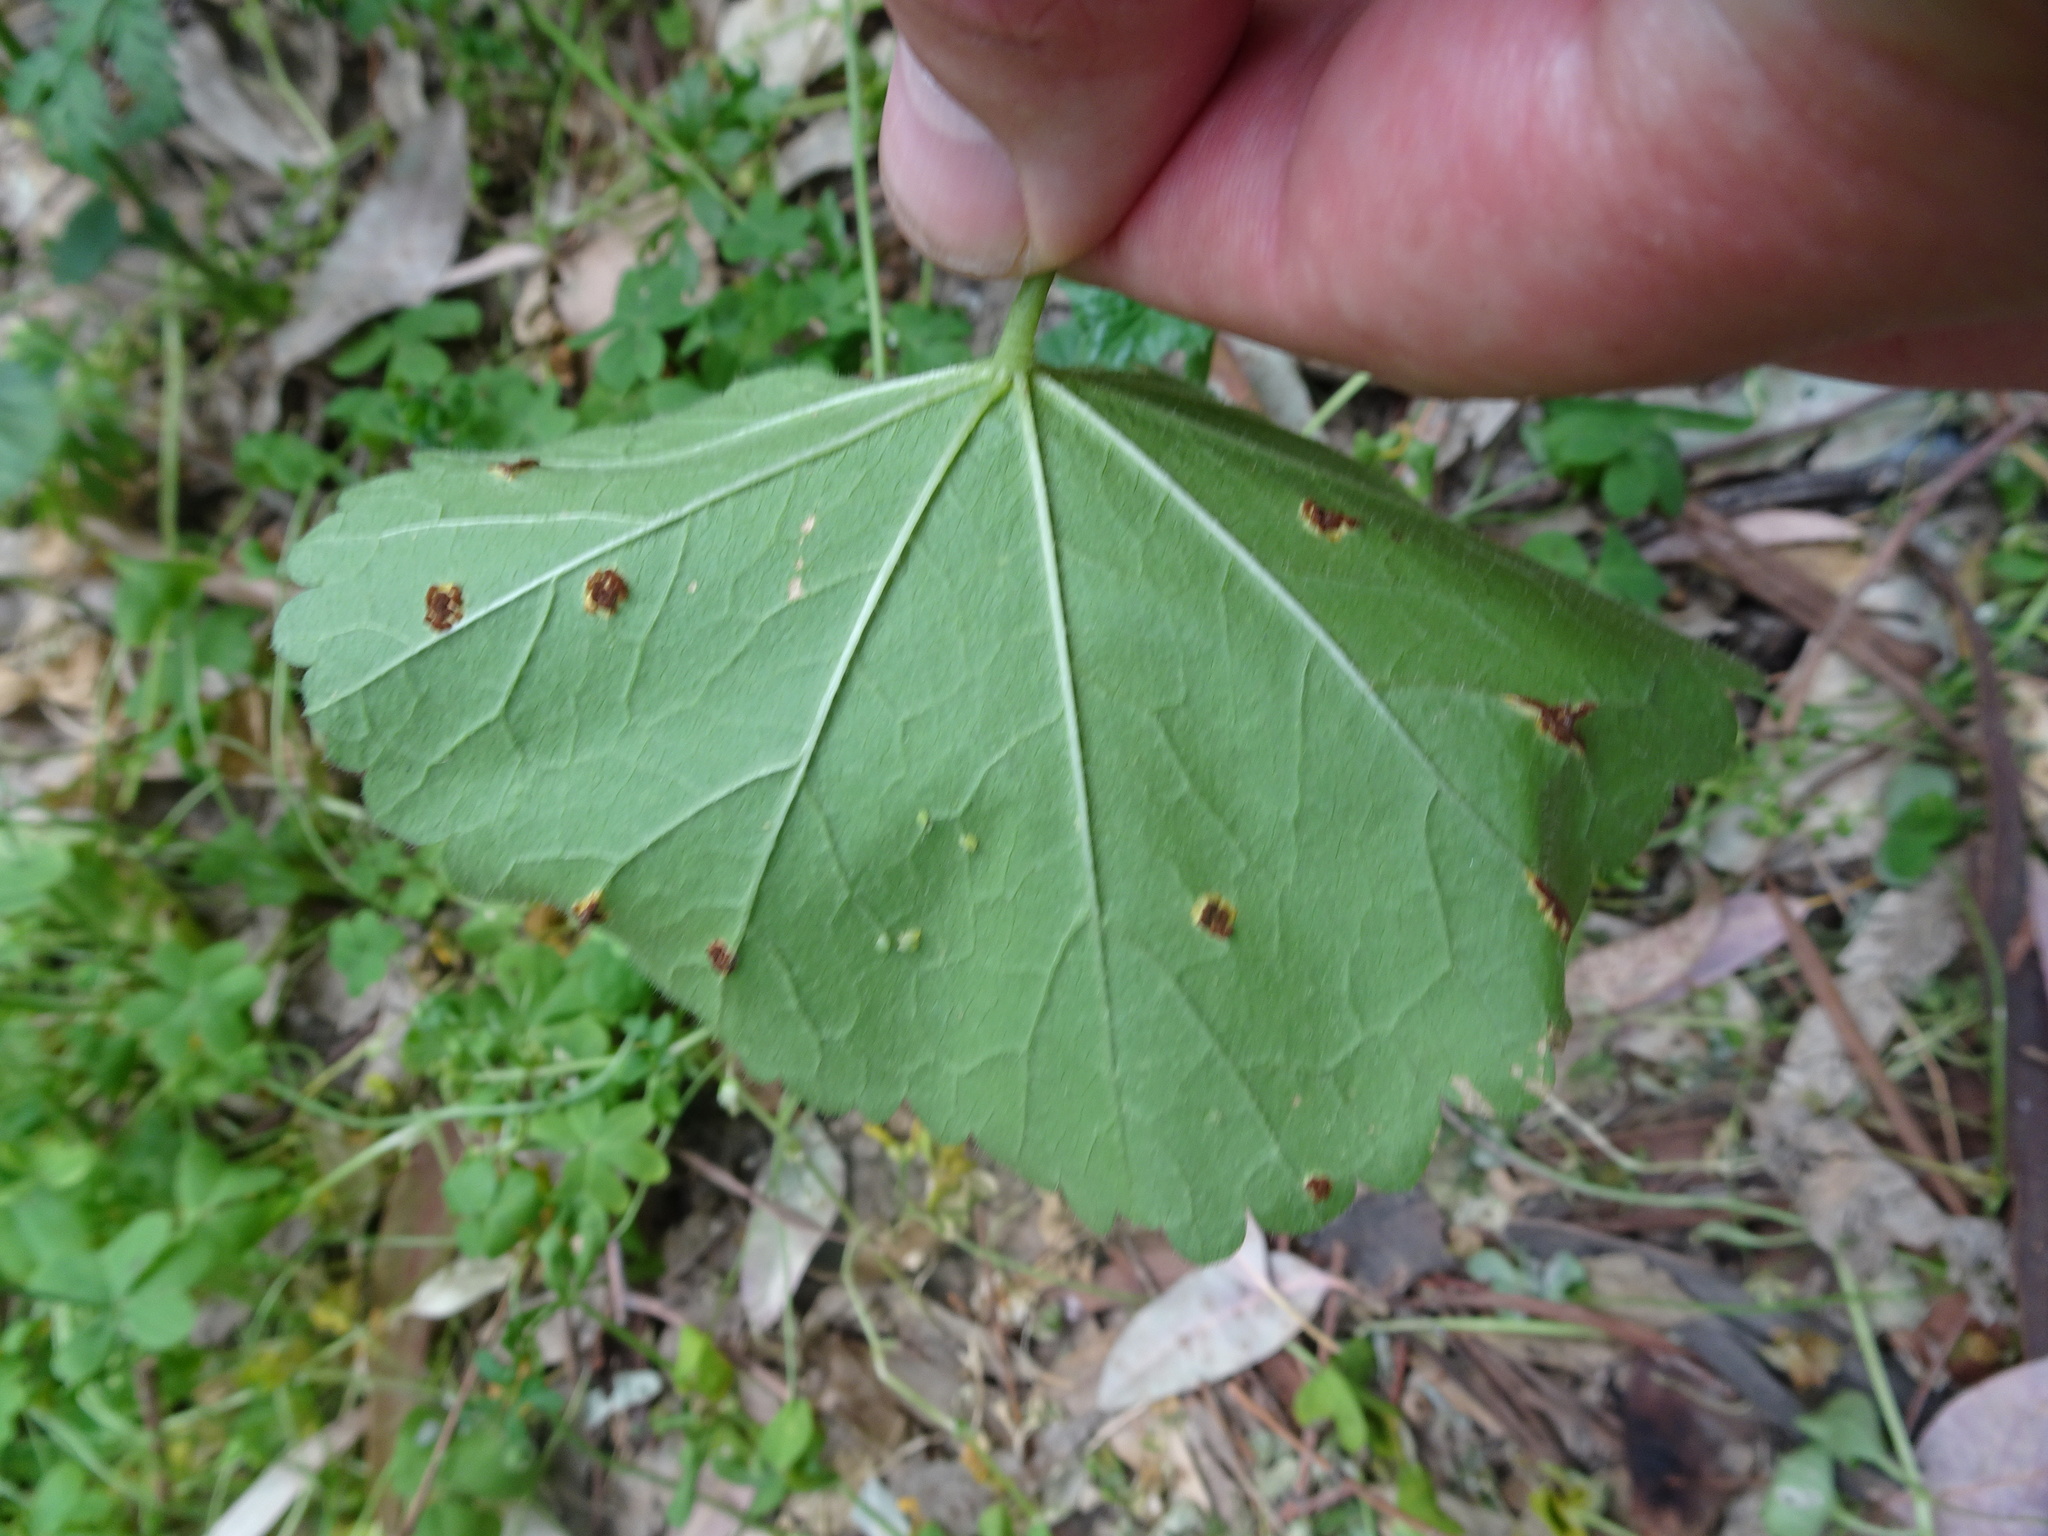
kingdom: Fungi
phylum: Basidiomycota
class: Pucciniomycetes
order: Pucciniales
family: Pucciniaceae
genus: Puccinia
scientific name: Puccinia malvacearum
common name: Hollyhock rust
